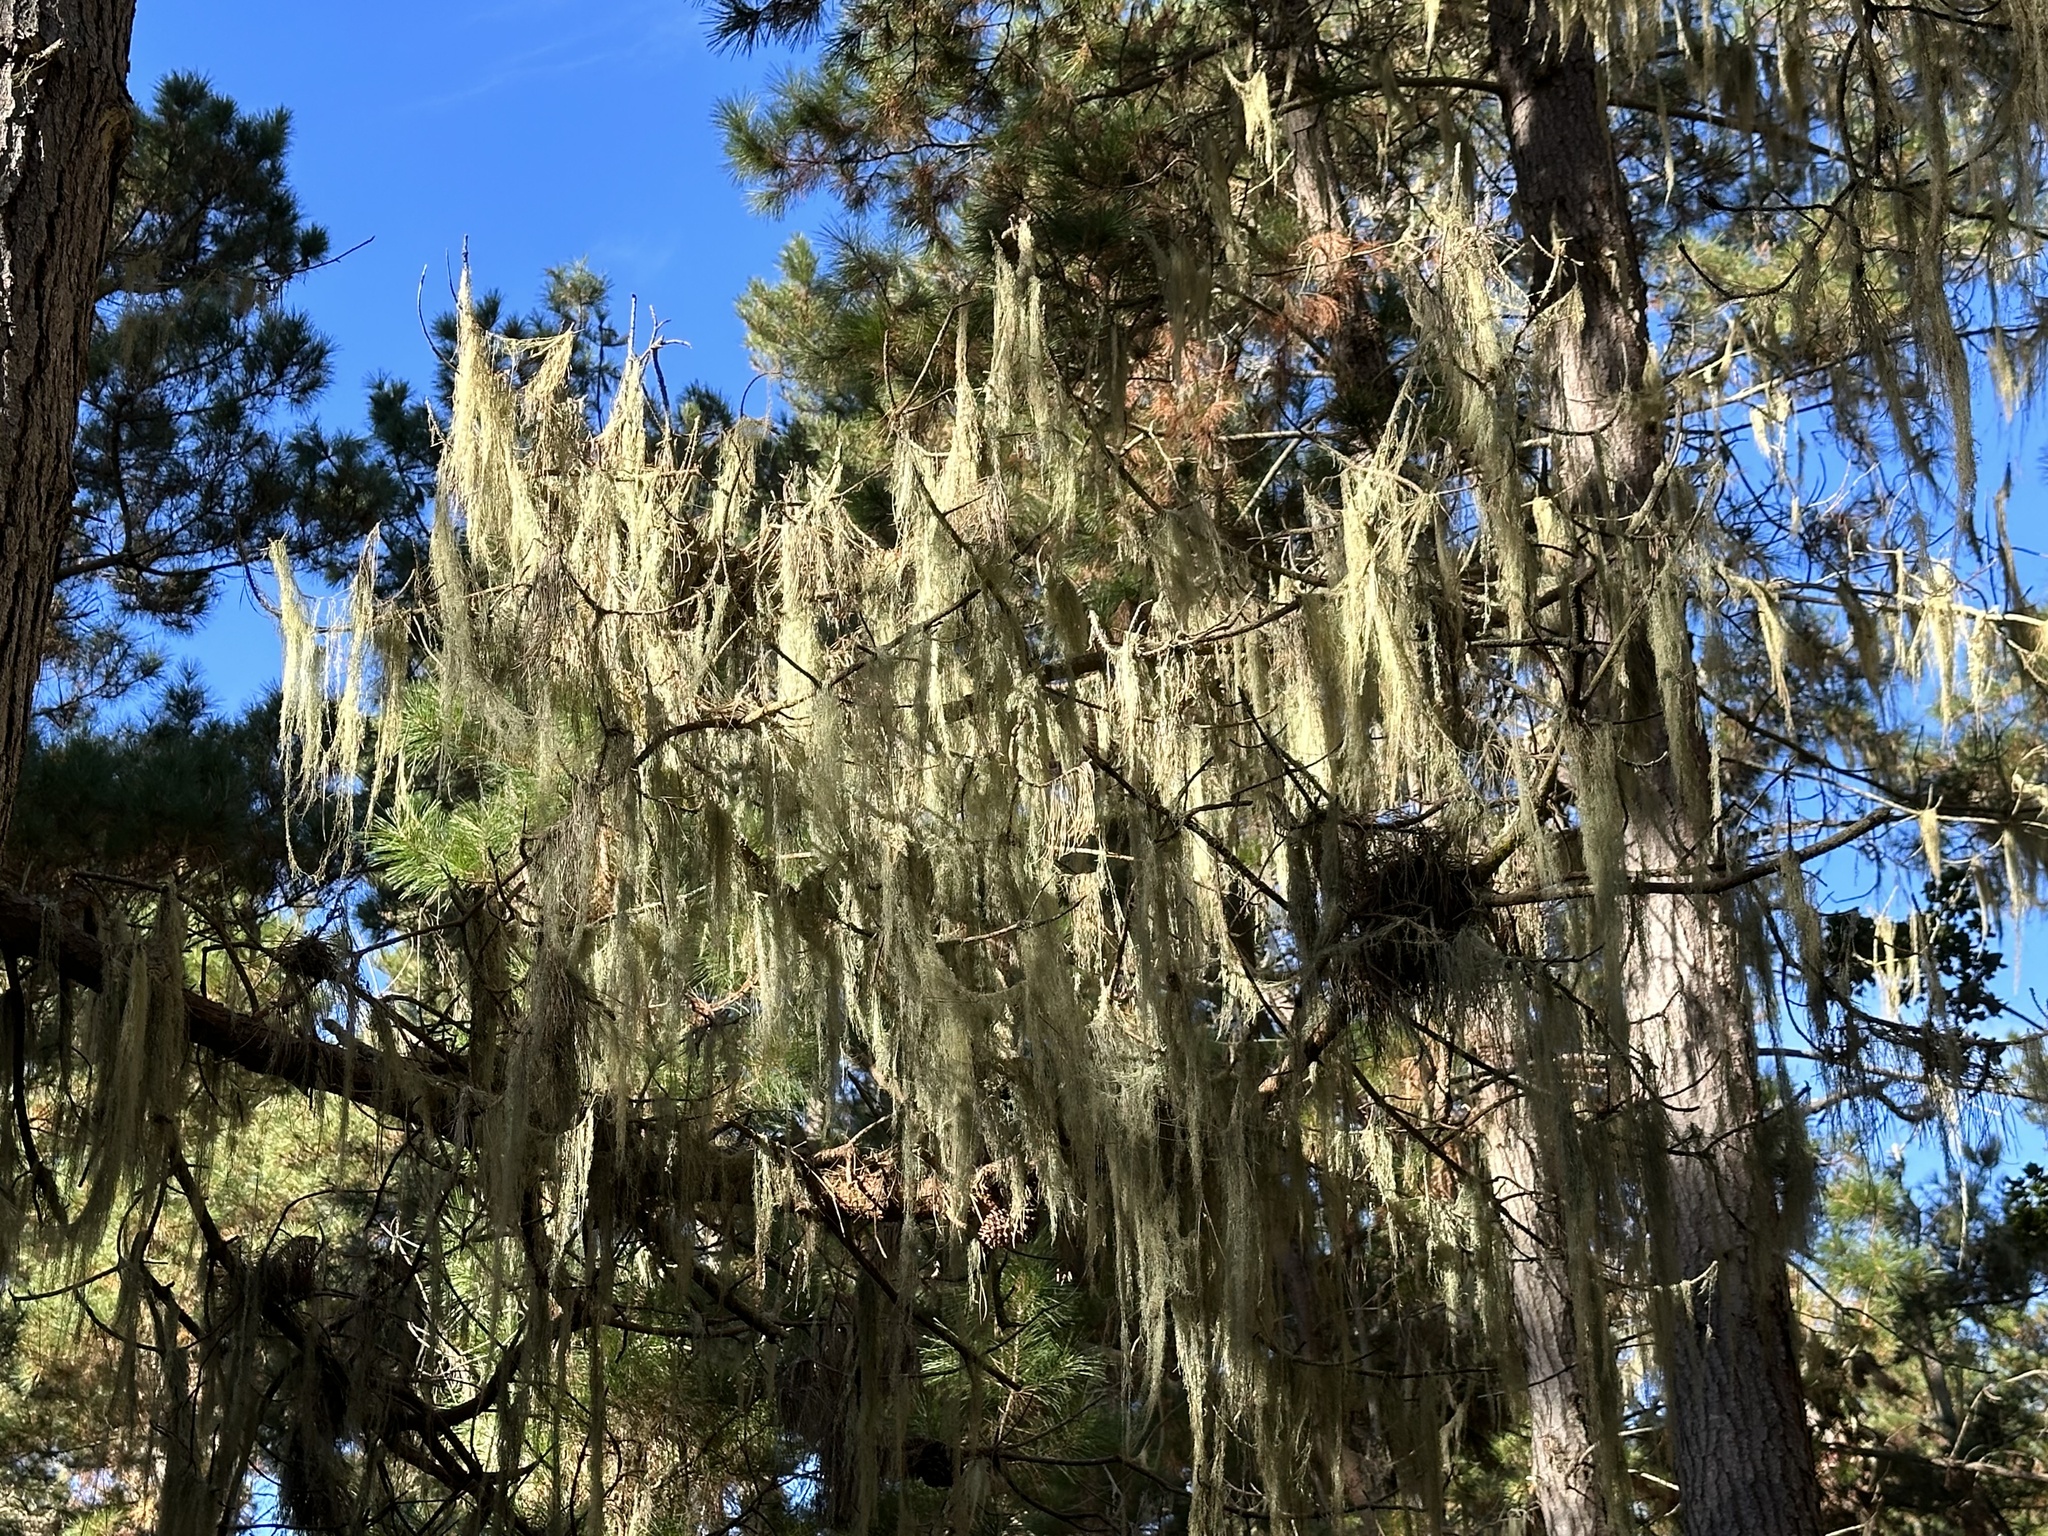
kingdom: Fungi
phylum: Ascomycota
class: Lecanoromycetes
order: Lecanorales
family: Ramalinaceae
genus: Ramalina
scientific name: Ramalina menziesii
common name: Lace lichen
